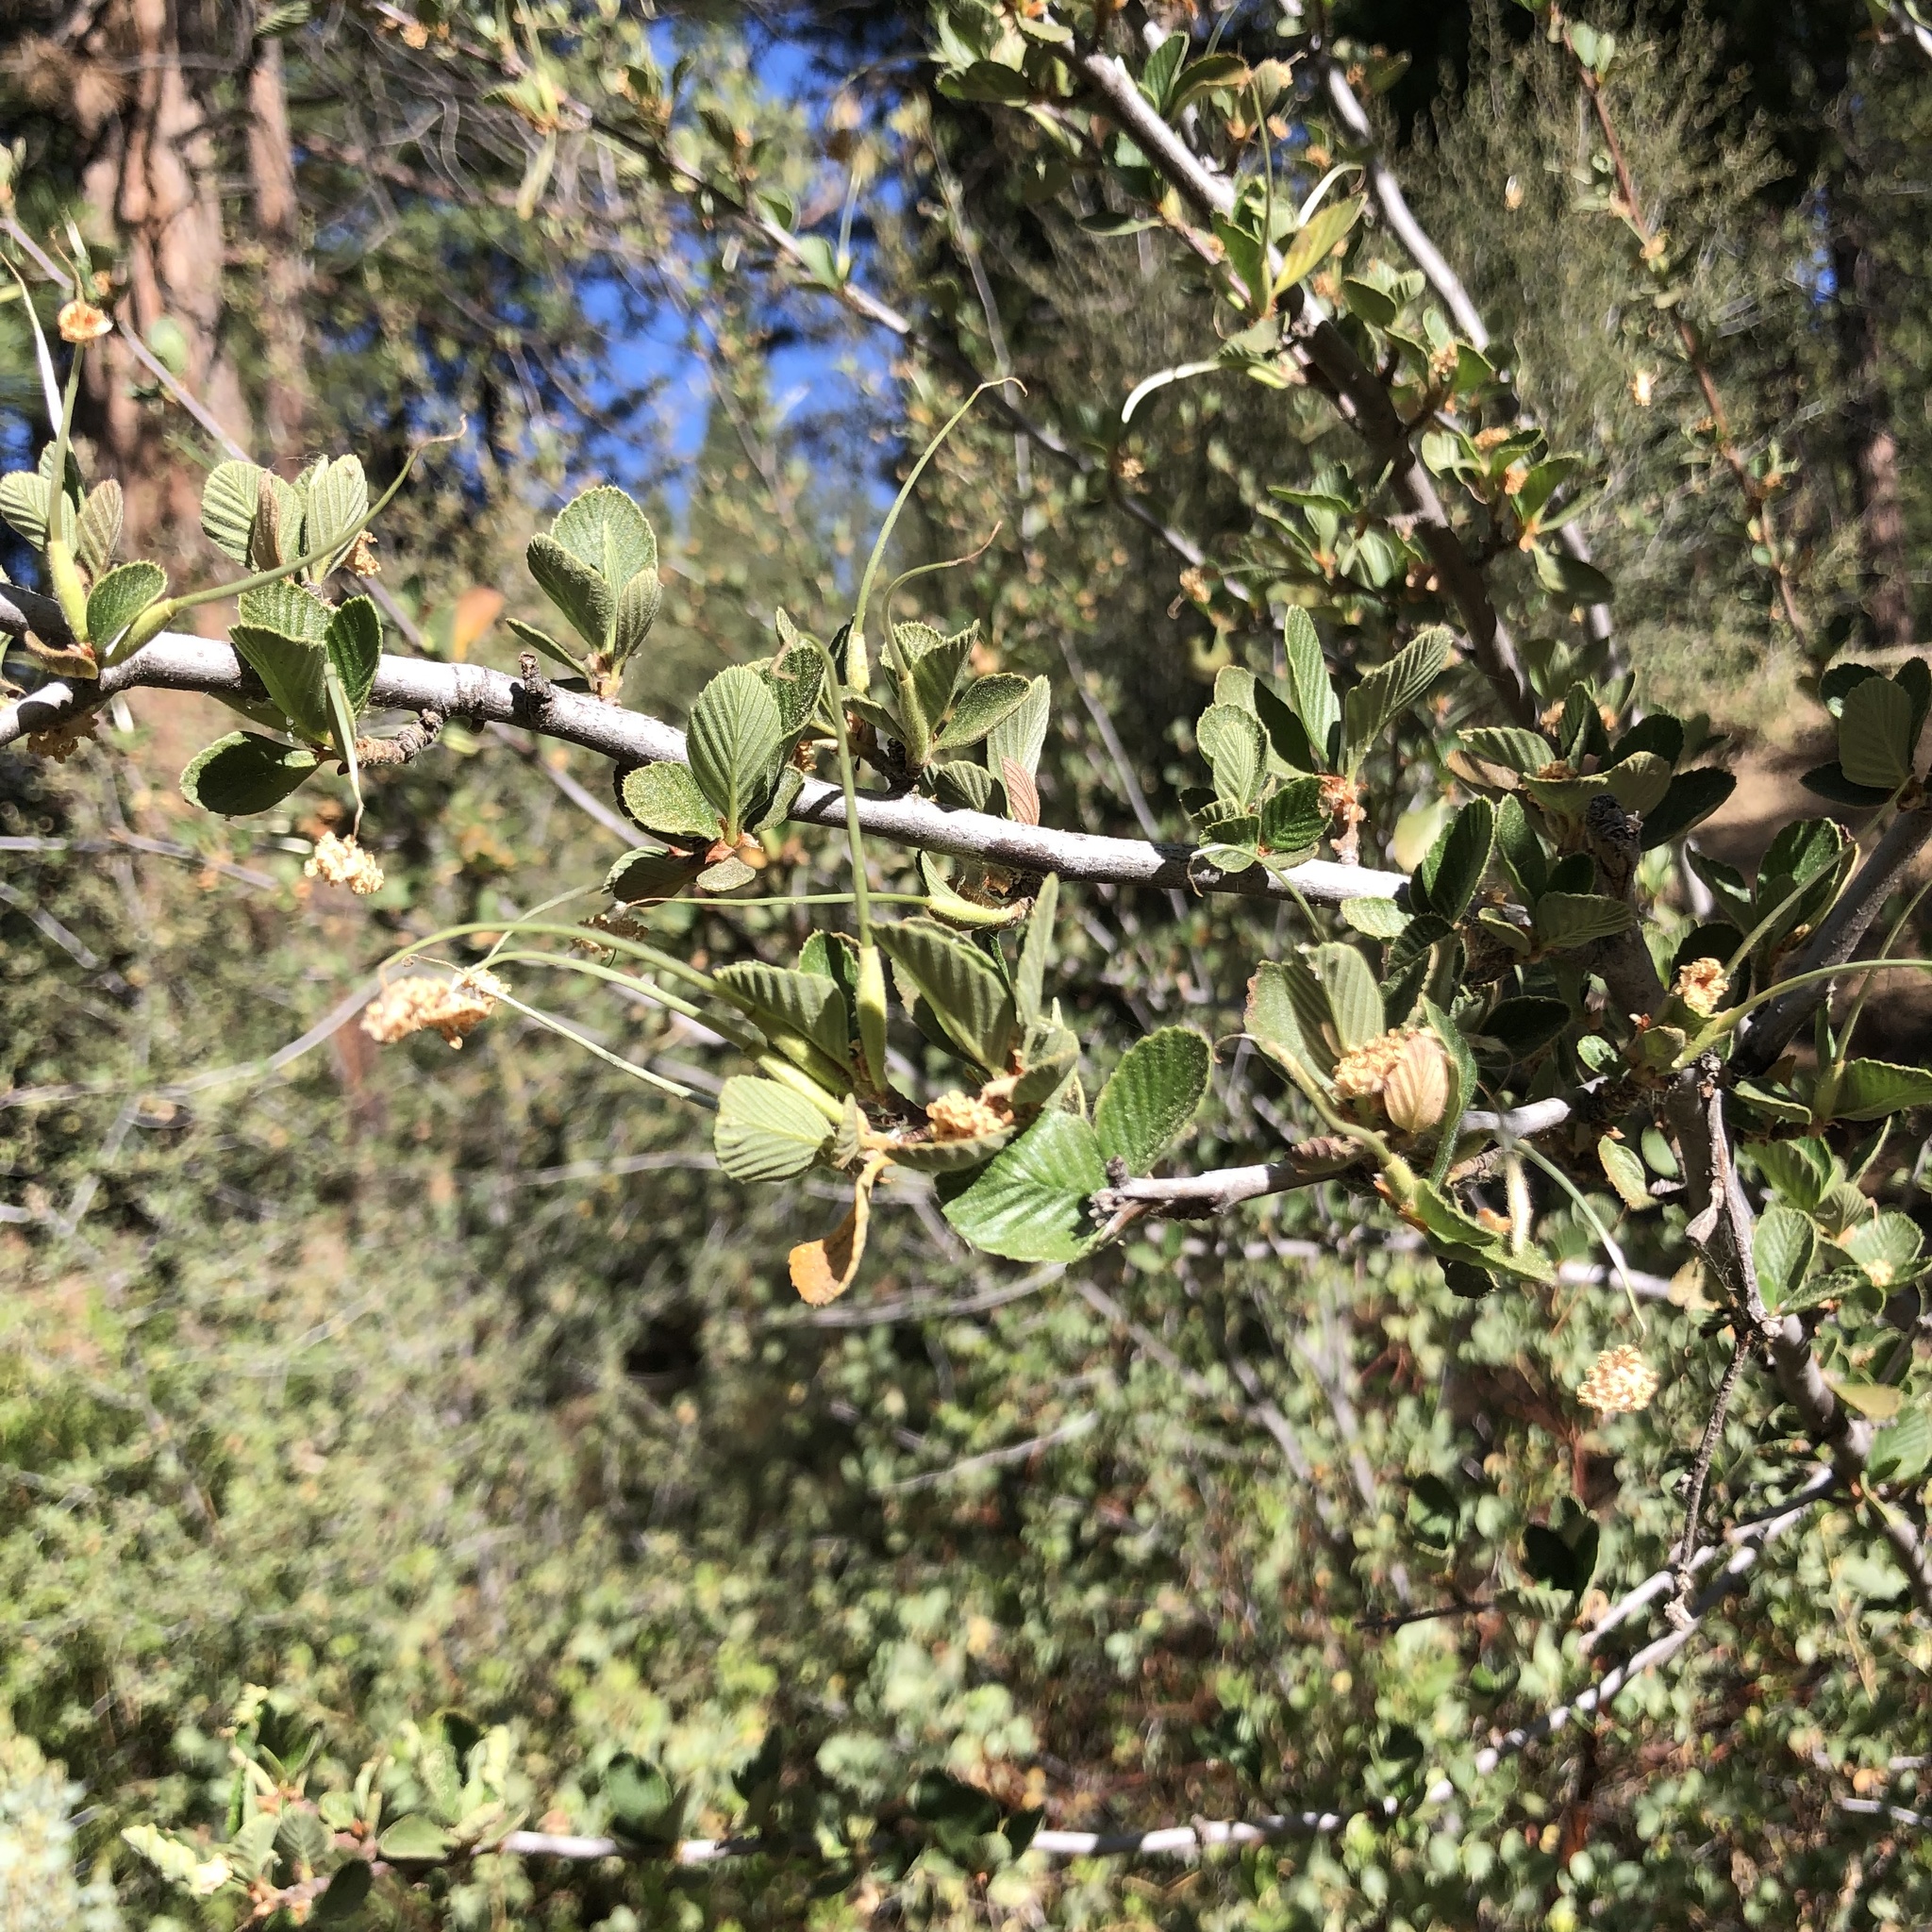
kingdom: Plantae
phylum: Tracheophyta
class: Magnoliopsida
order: Rosales
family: Rosaceae
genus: Cercocarpus
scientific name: Cercocarpus betuloides
